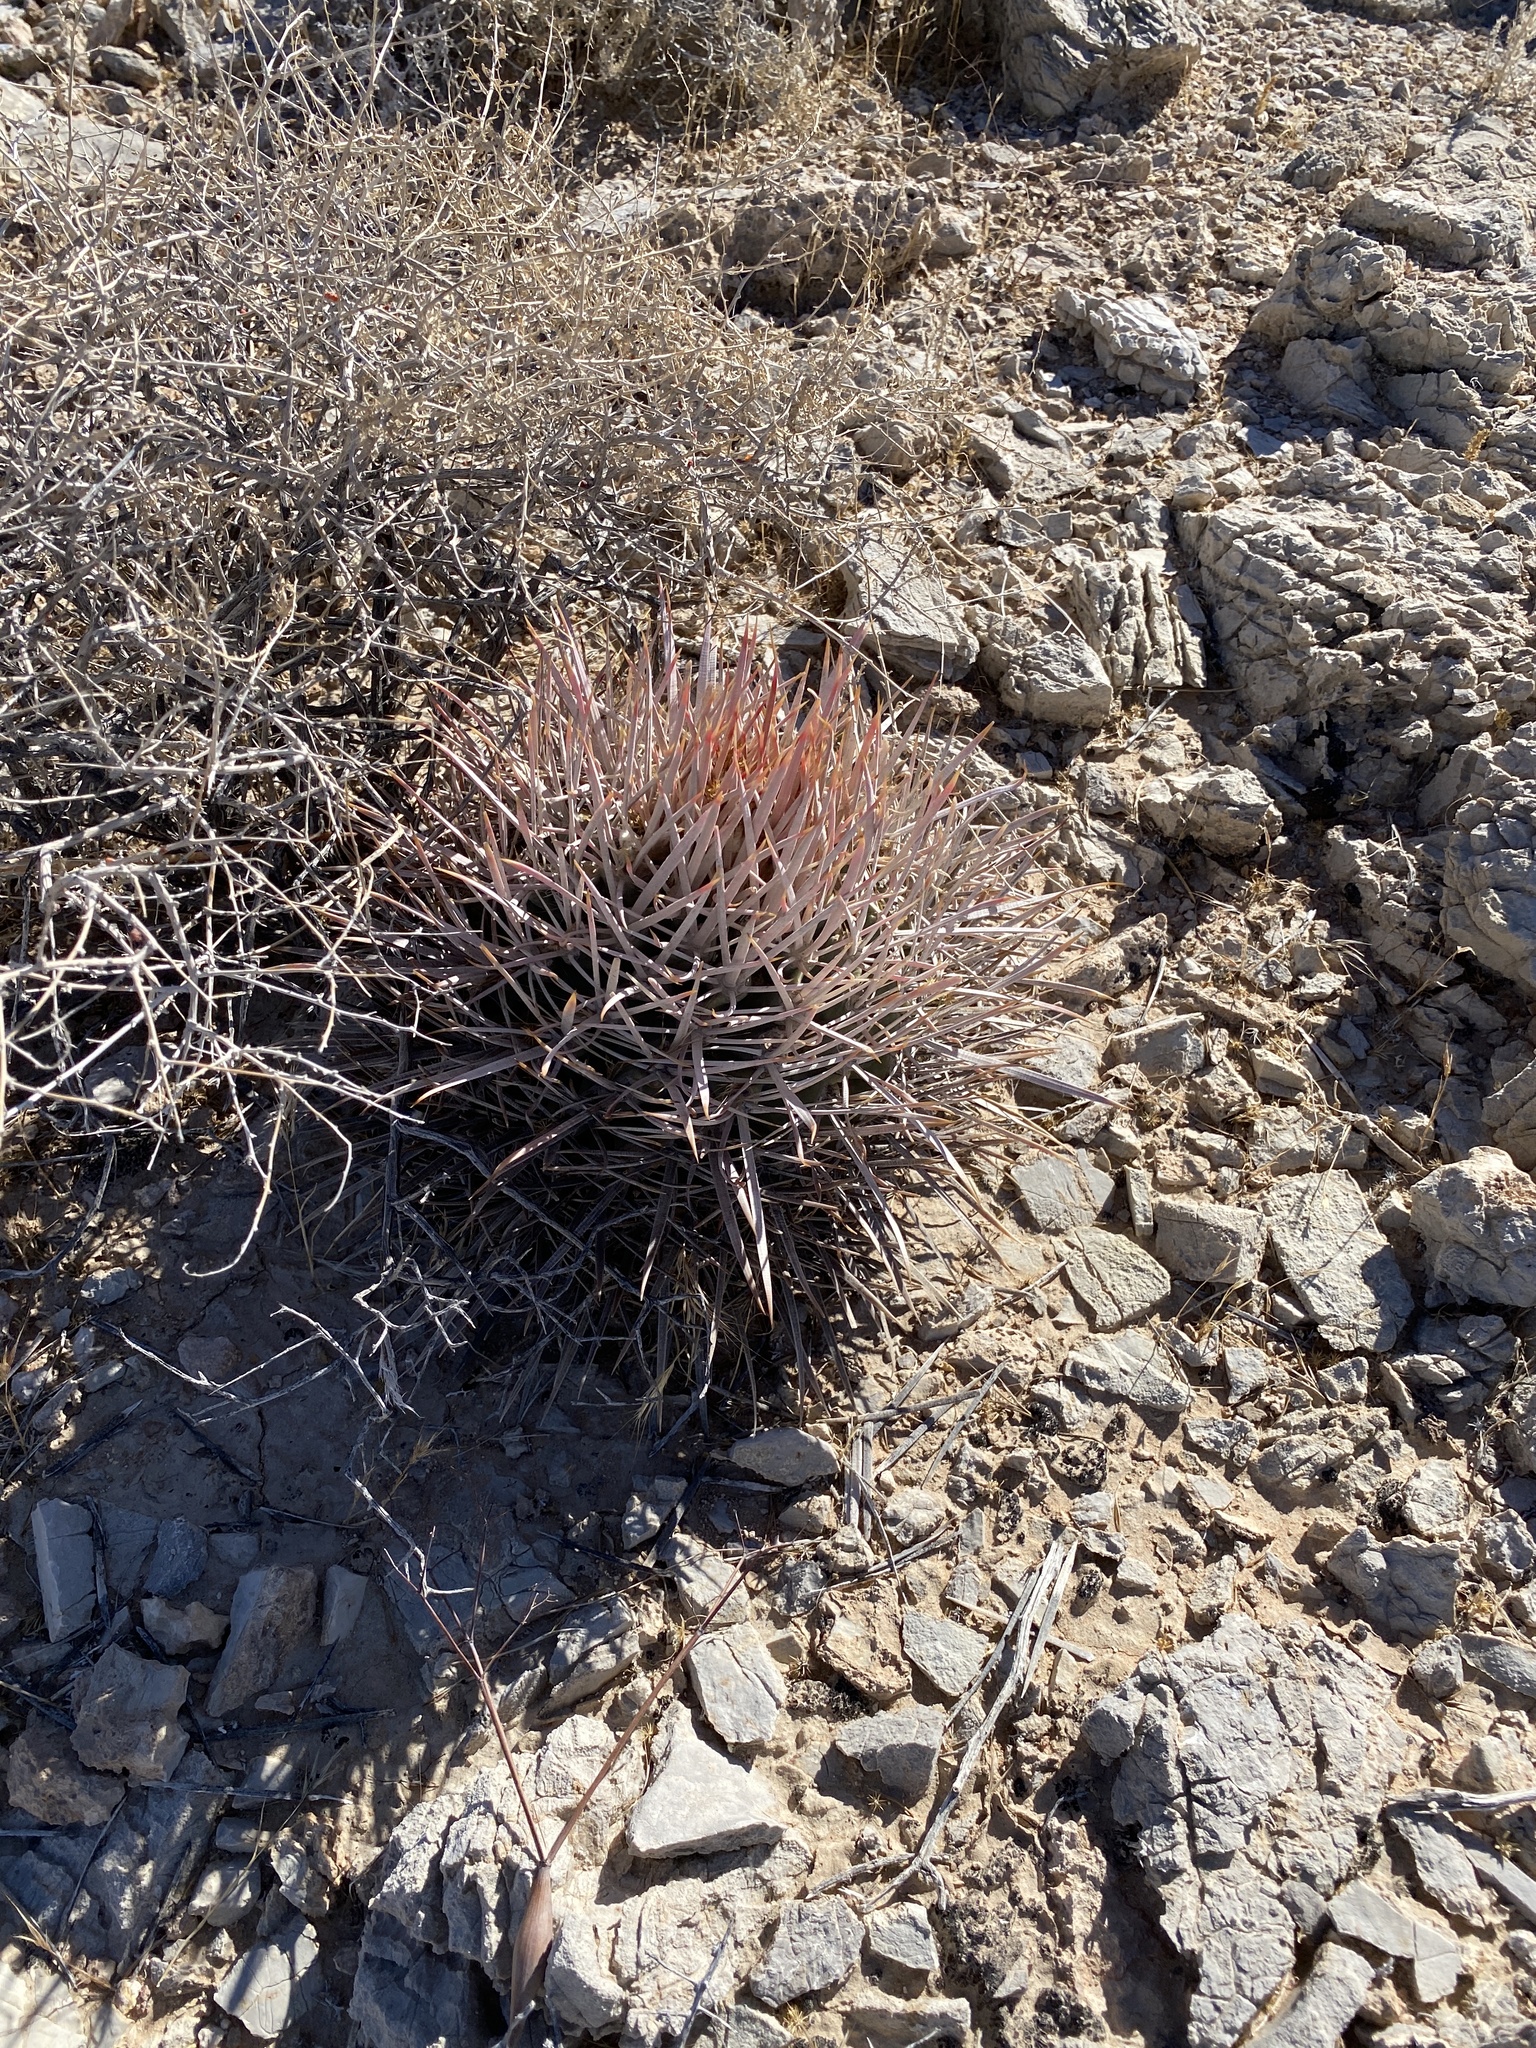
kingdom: Plantae
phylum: Tracheophyta
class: Magnoliopsida
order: Caryophyllales
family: Cactaceae
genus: Echinocactus
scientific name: Echinocactus polycephalus
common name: Cottontop cactus
